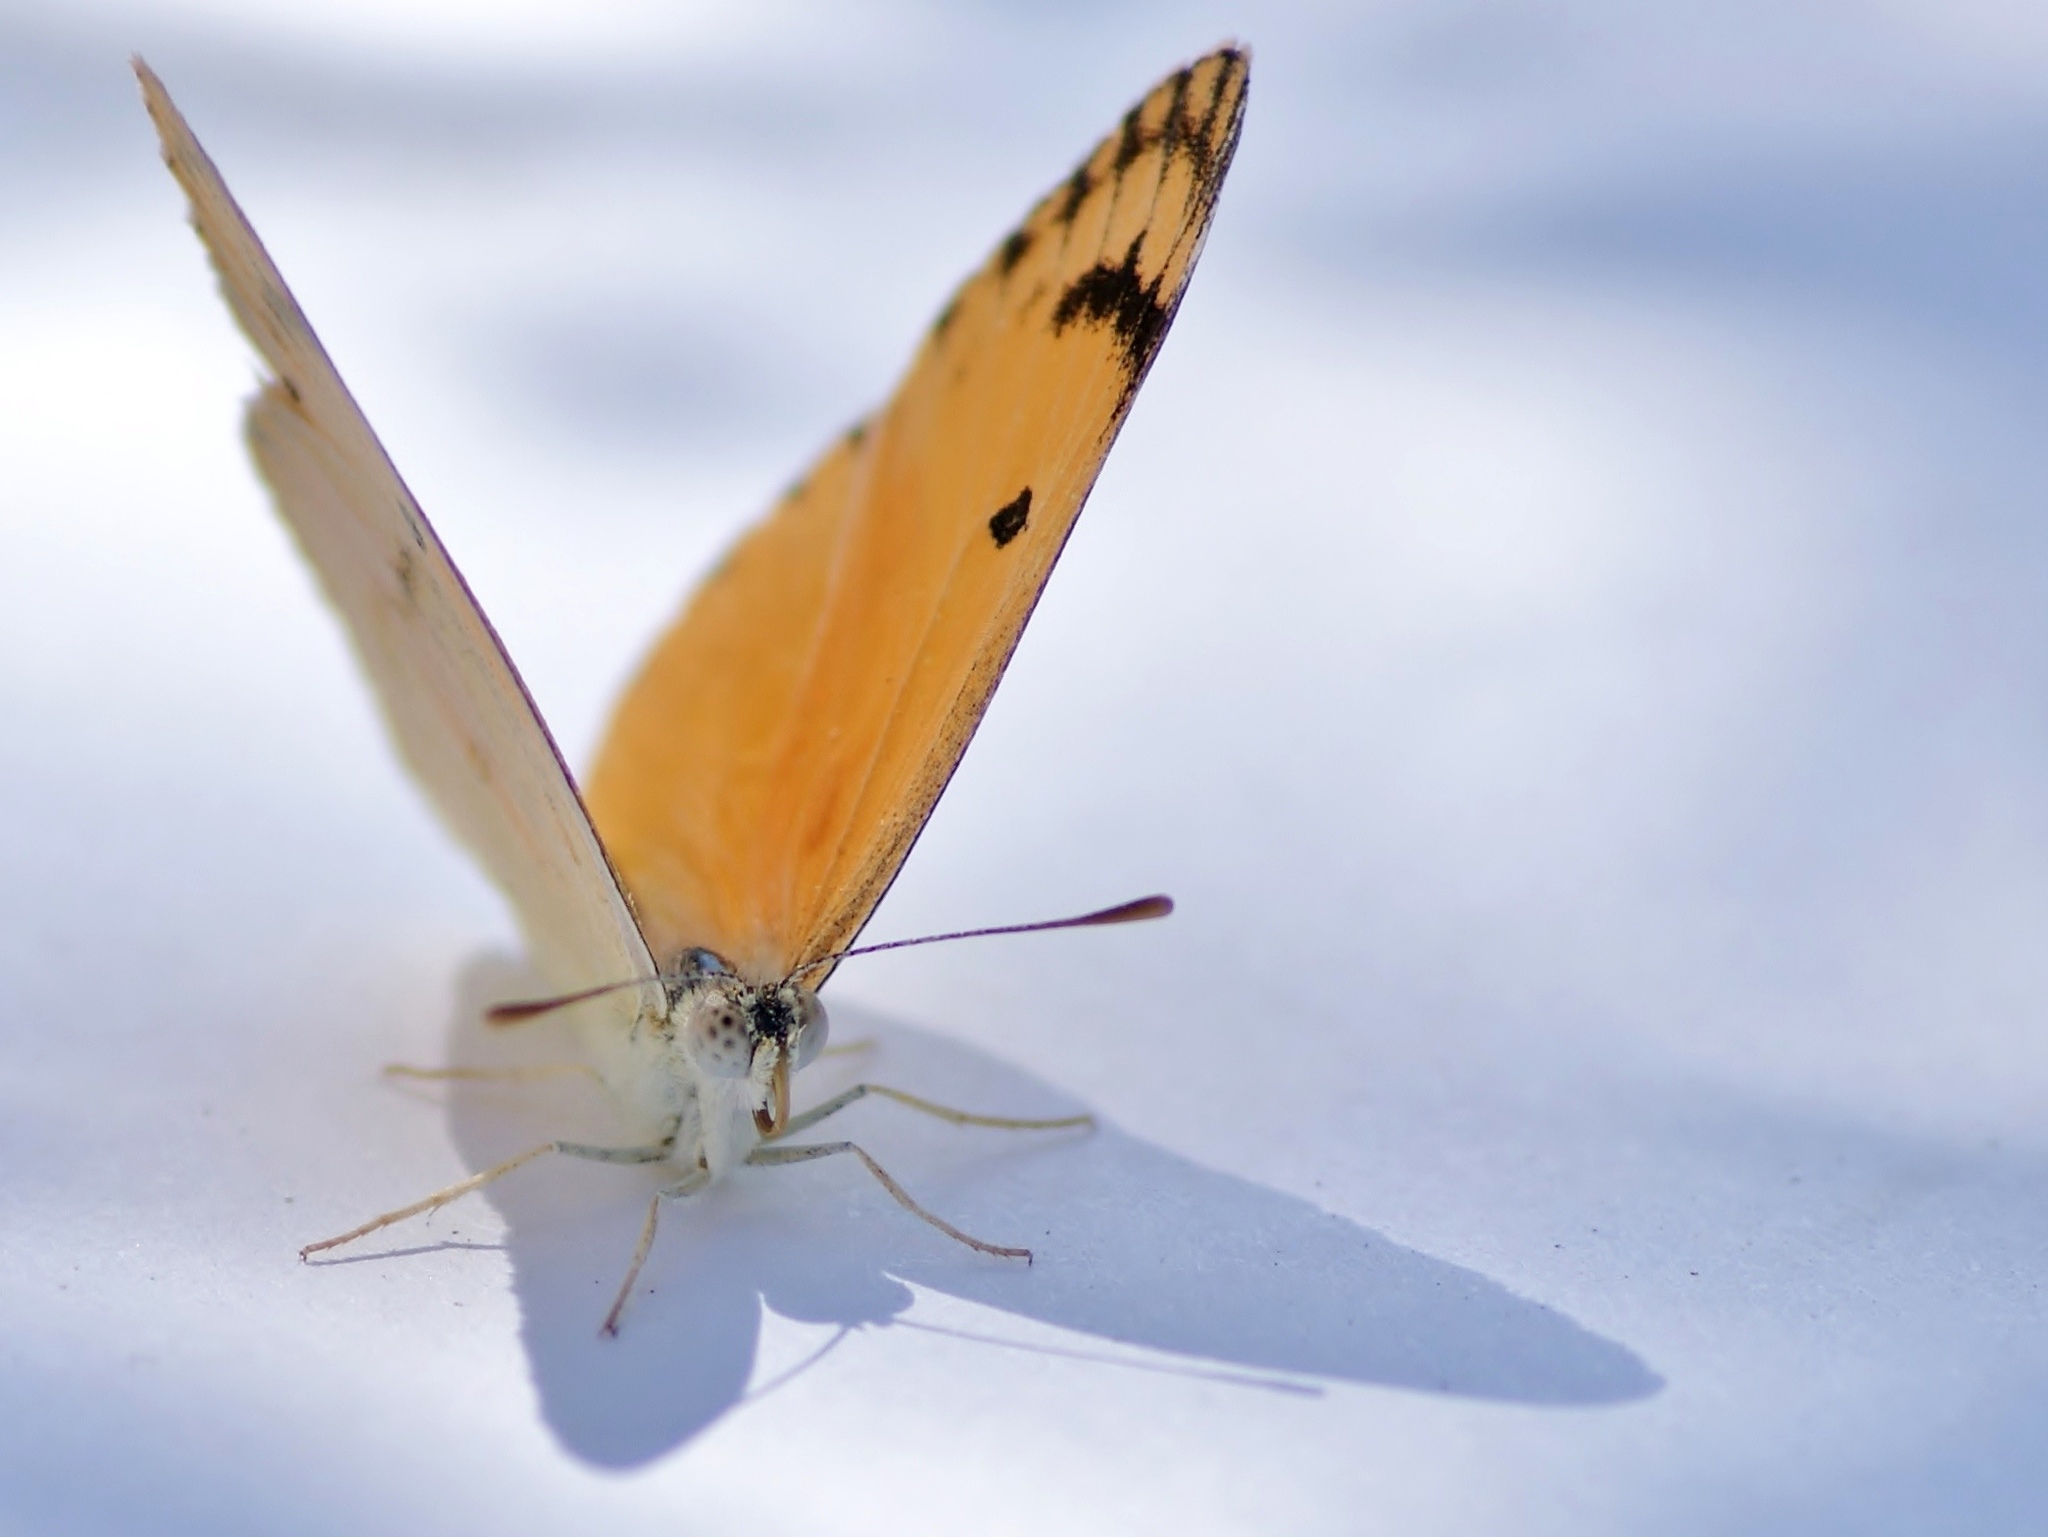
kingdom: Animalia
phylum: Arthropoda
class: Insecta
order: Lepidoptera
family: Pieridae
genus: Colotis
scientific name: Colotis fausta
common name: Large salmon arab
